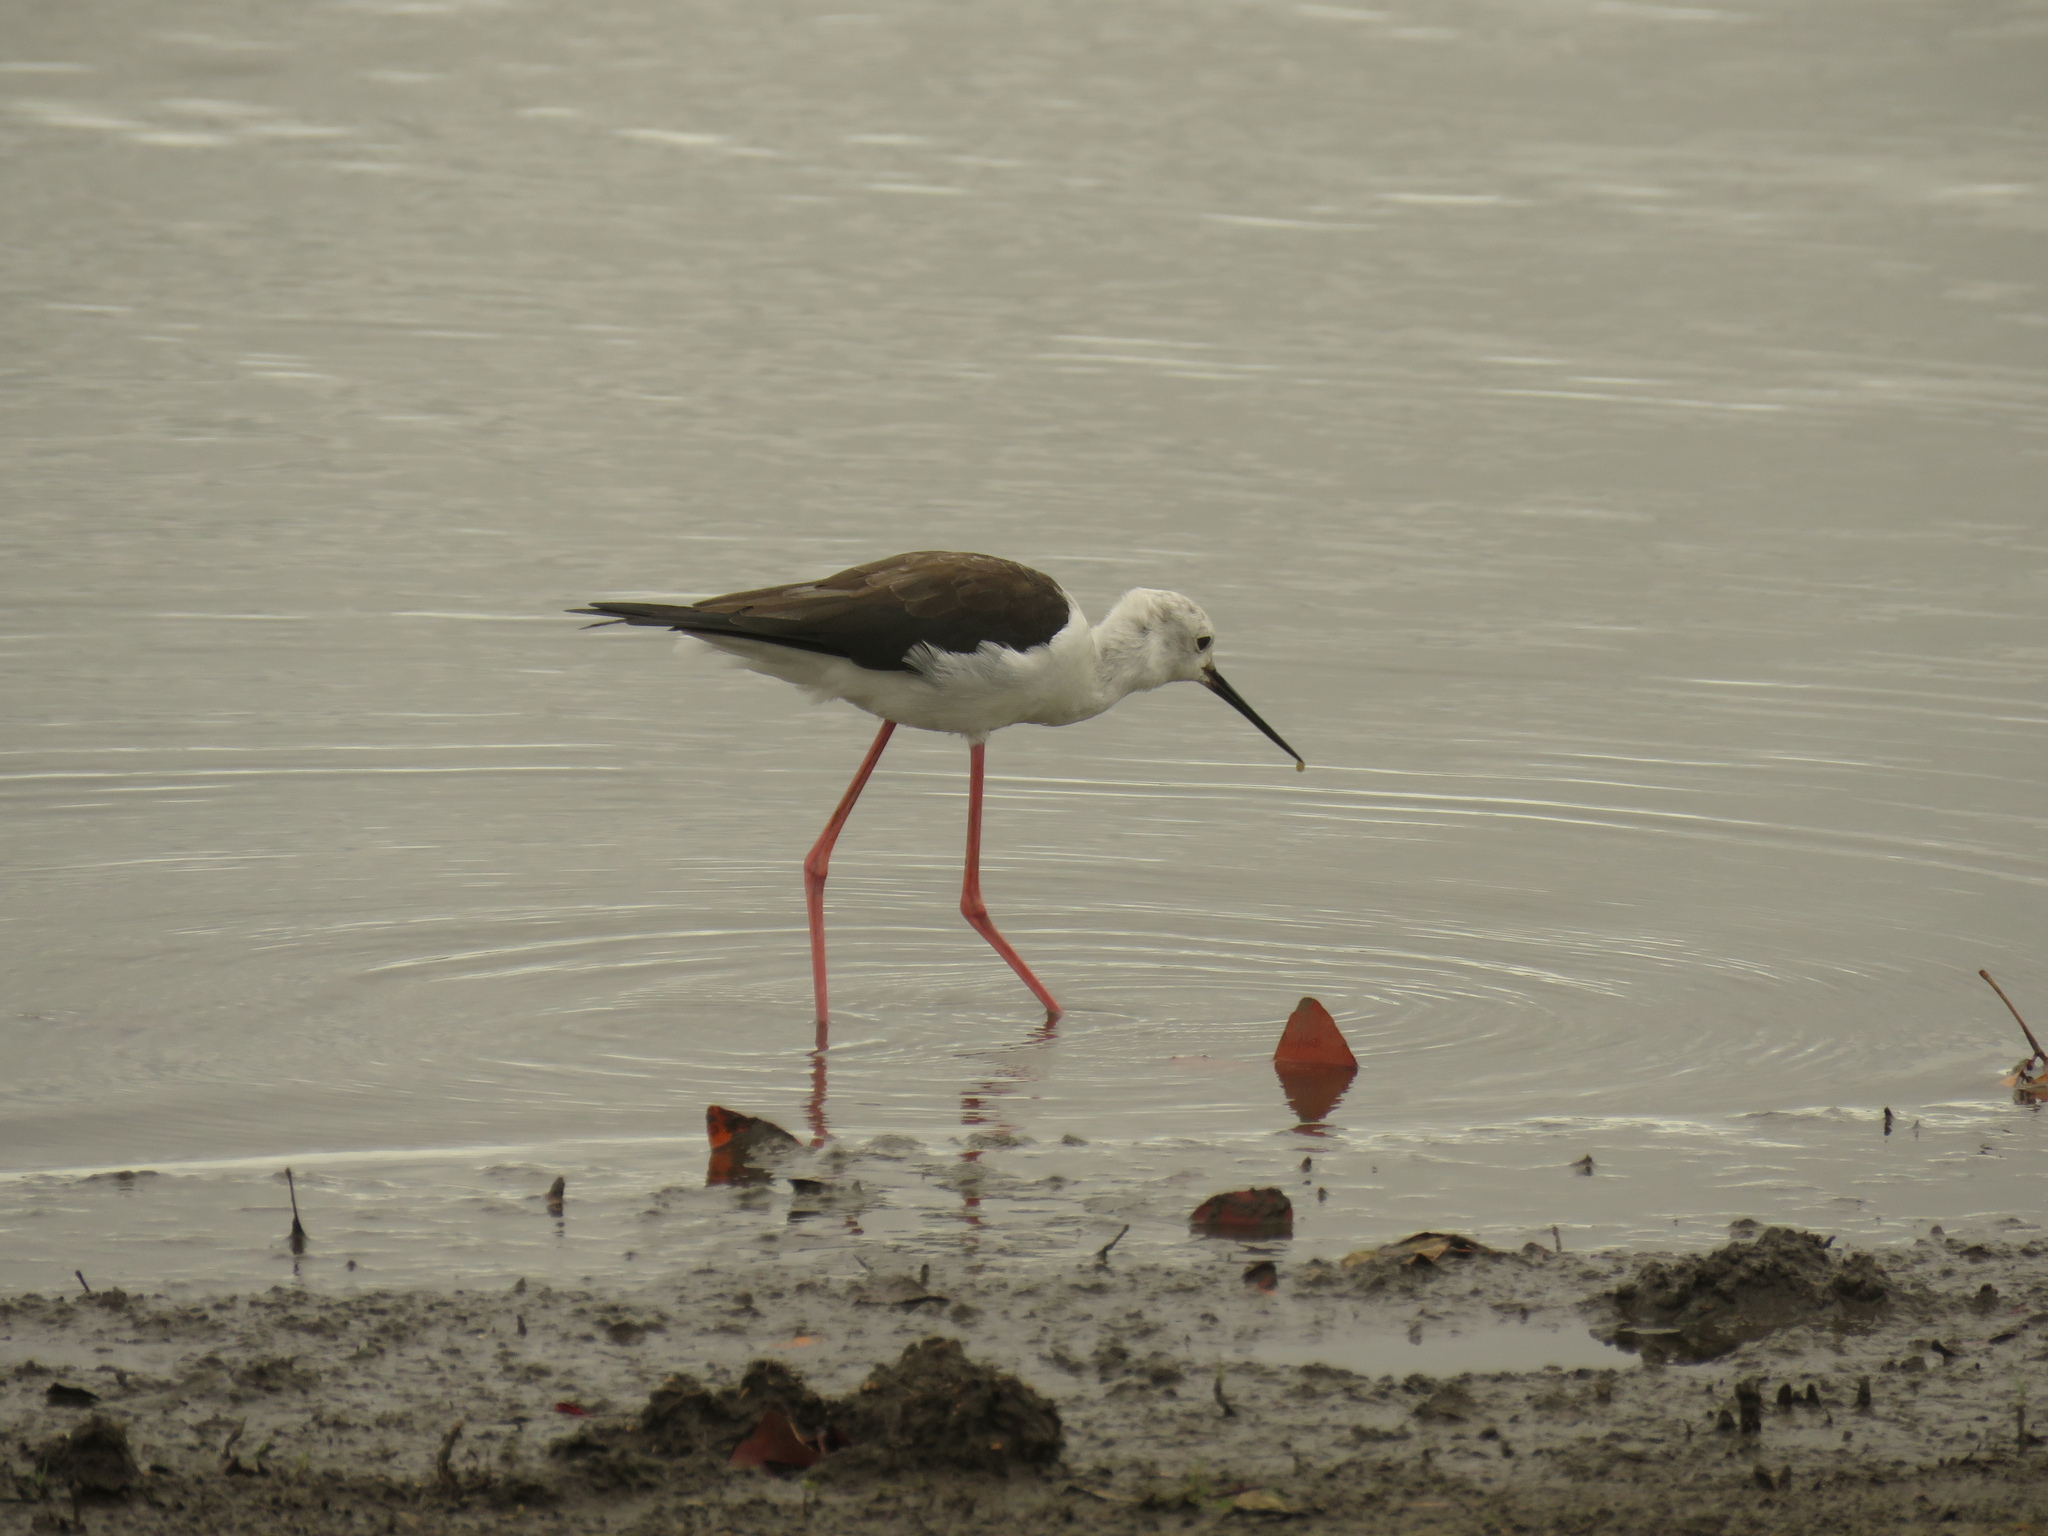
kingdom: Animalia
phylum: Chordata
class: Aves
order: Charadriiformes
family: Recurvirostridae
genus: Himantopus
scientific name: Himantopus himantopus
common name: Black-winged stilt
